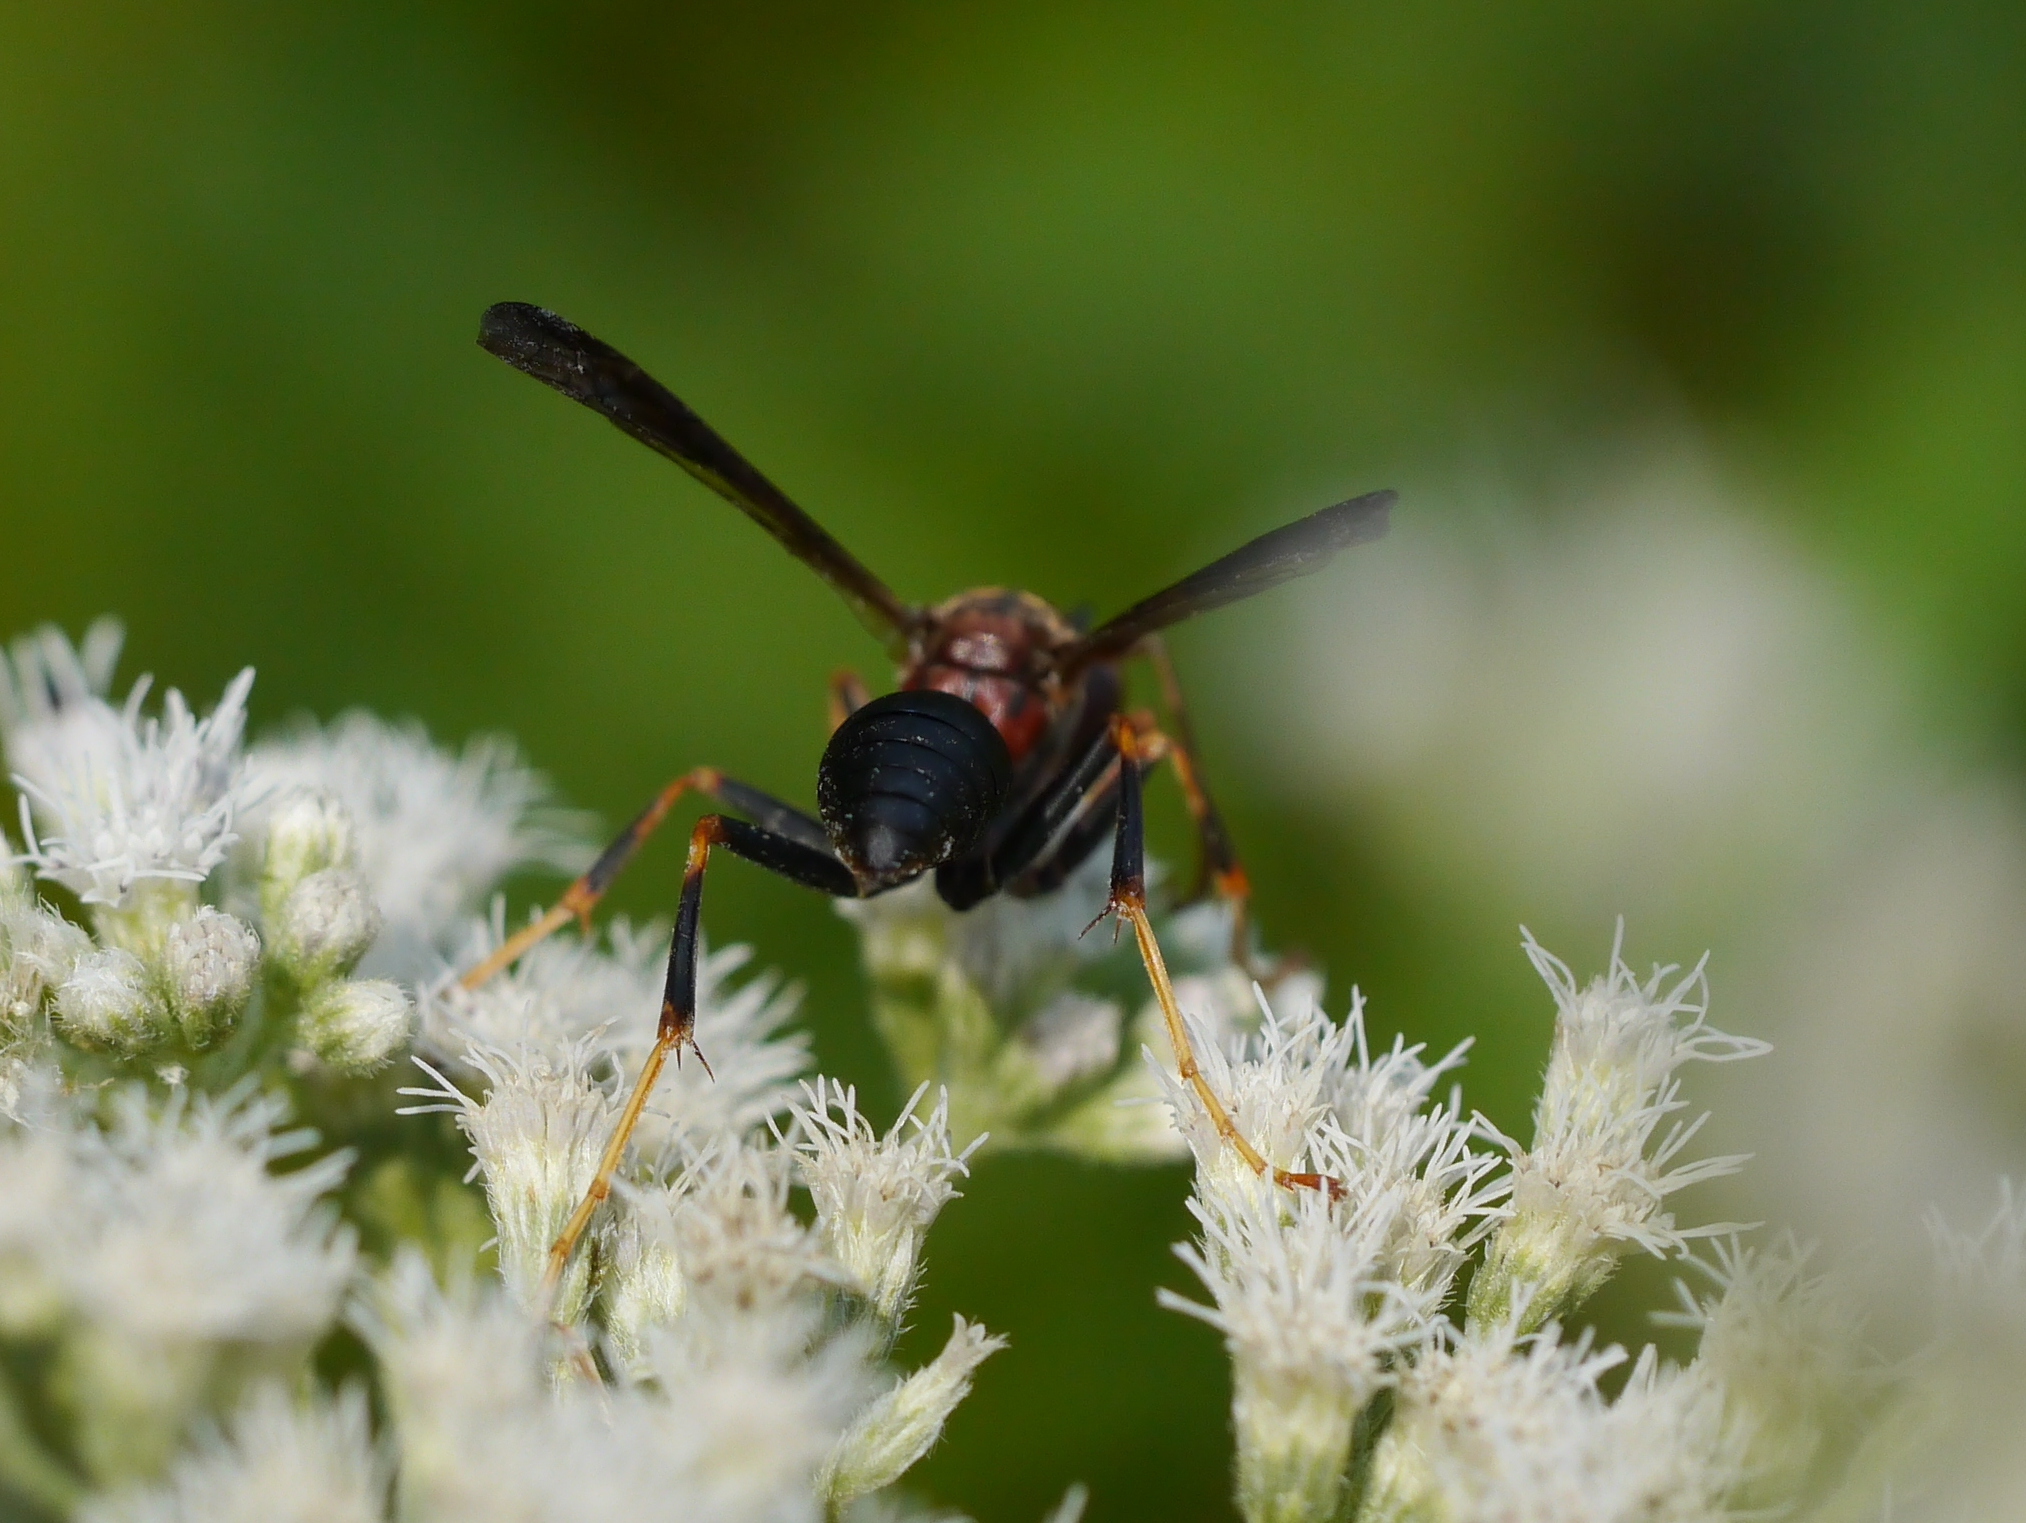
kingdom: Animalia
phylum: Arthropoda
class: Insecta
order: Hymenoptera
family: Eumenidae
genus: Polistes
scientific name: Polistes metricus
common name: Metric paper wasp
